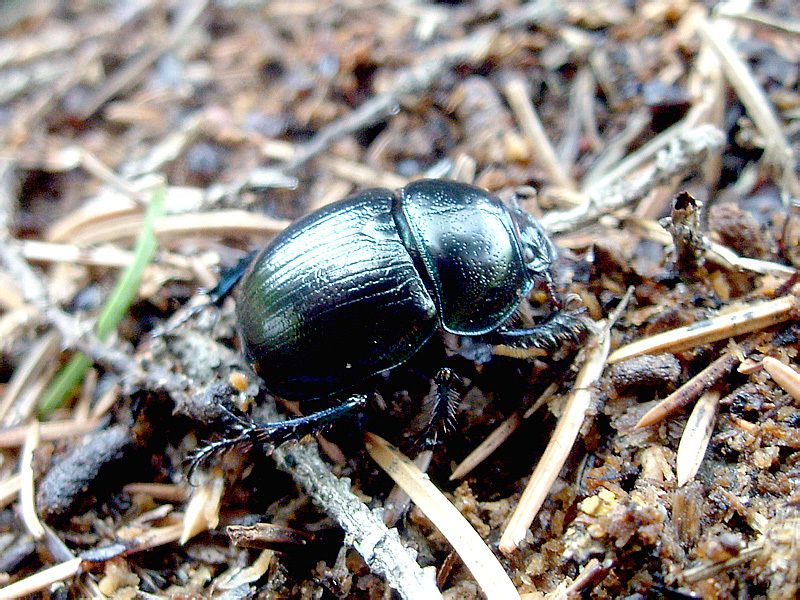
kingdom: Animalia
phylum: Arthropoda
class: Insecta
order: Coleoptera
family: Geotrupidae
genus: Anoplotrupes
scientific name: Anoplotrupes stercorosus
